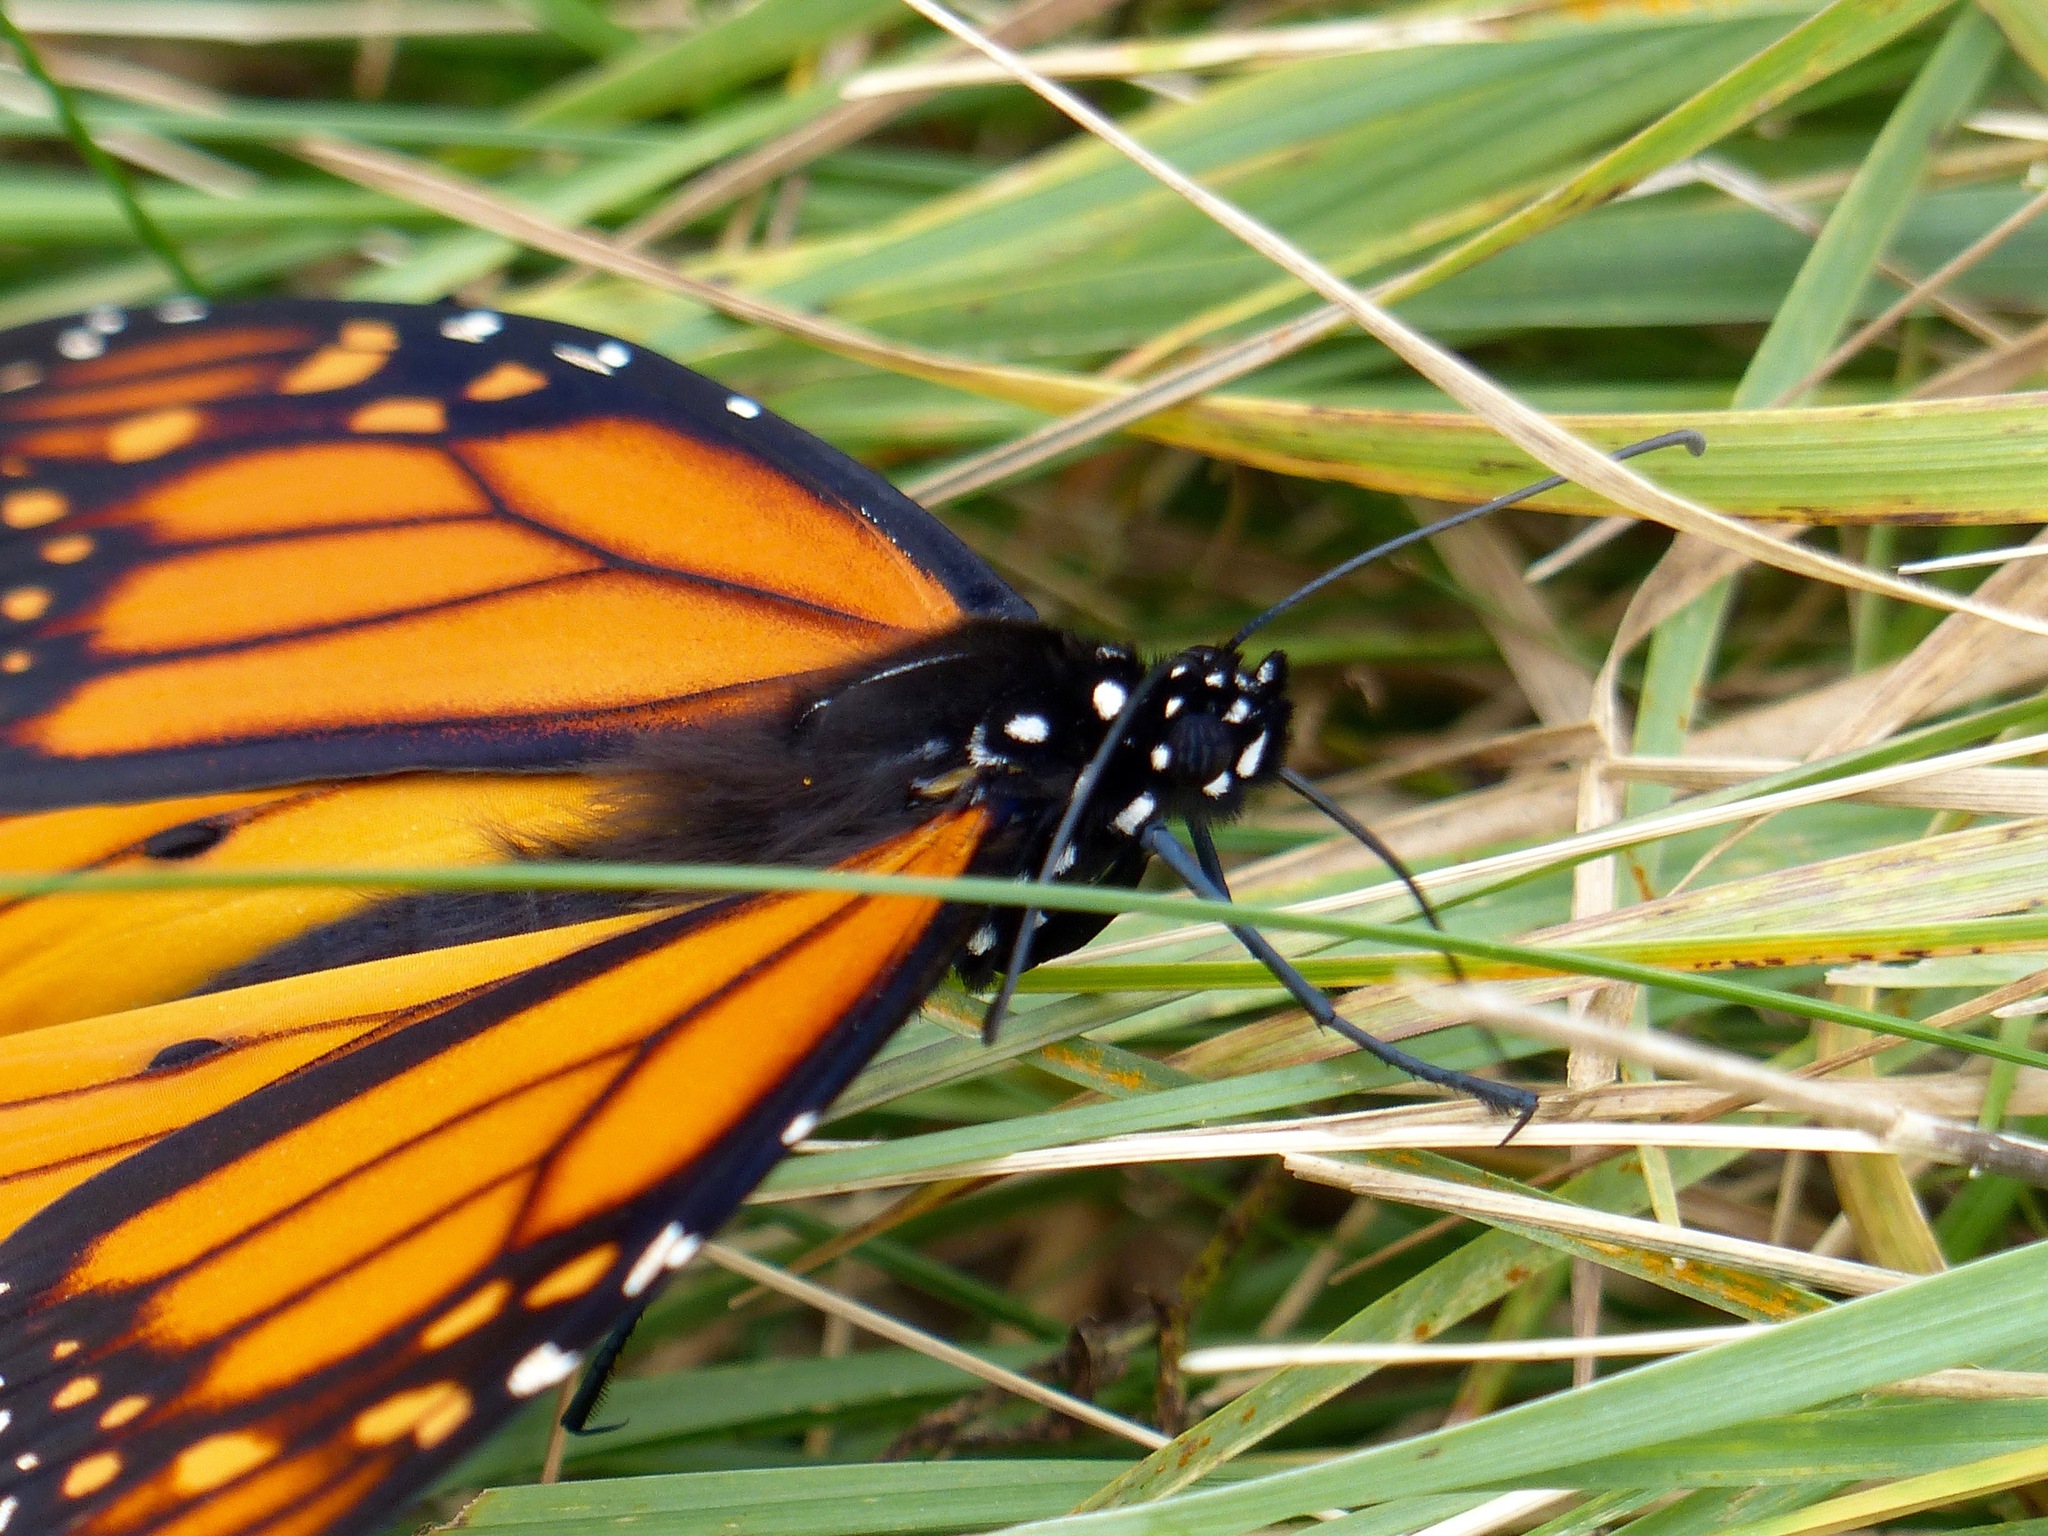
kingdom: Animalia
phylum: Arthropoda
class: Insecta
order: Lepidoptera
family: Nymphalidae
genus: Danaus
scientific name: Danaus plexippus
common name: Monarch
